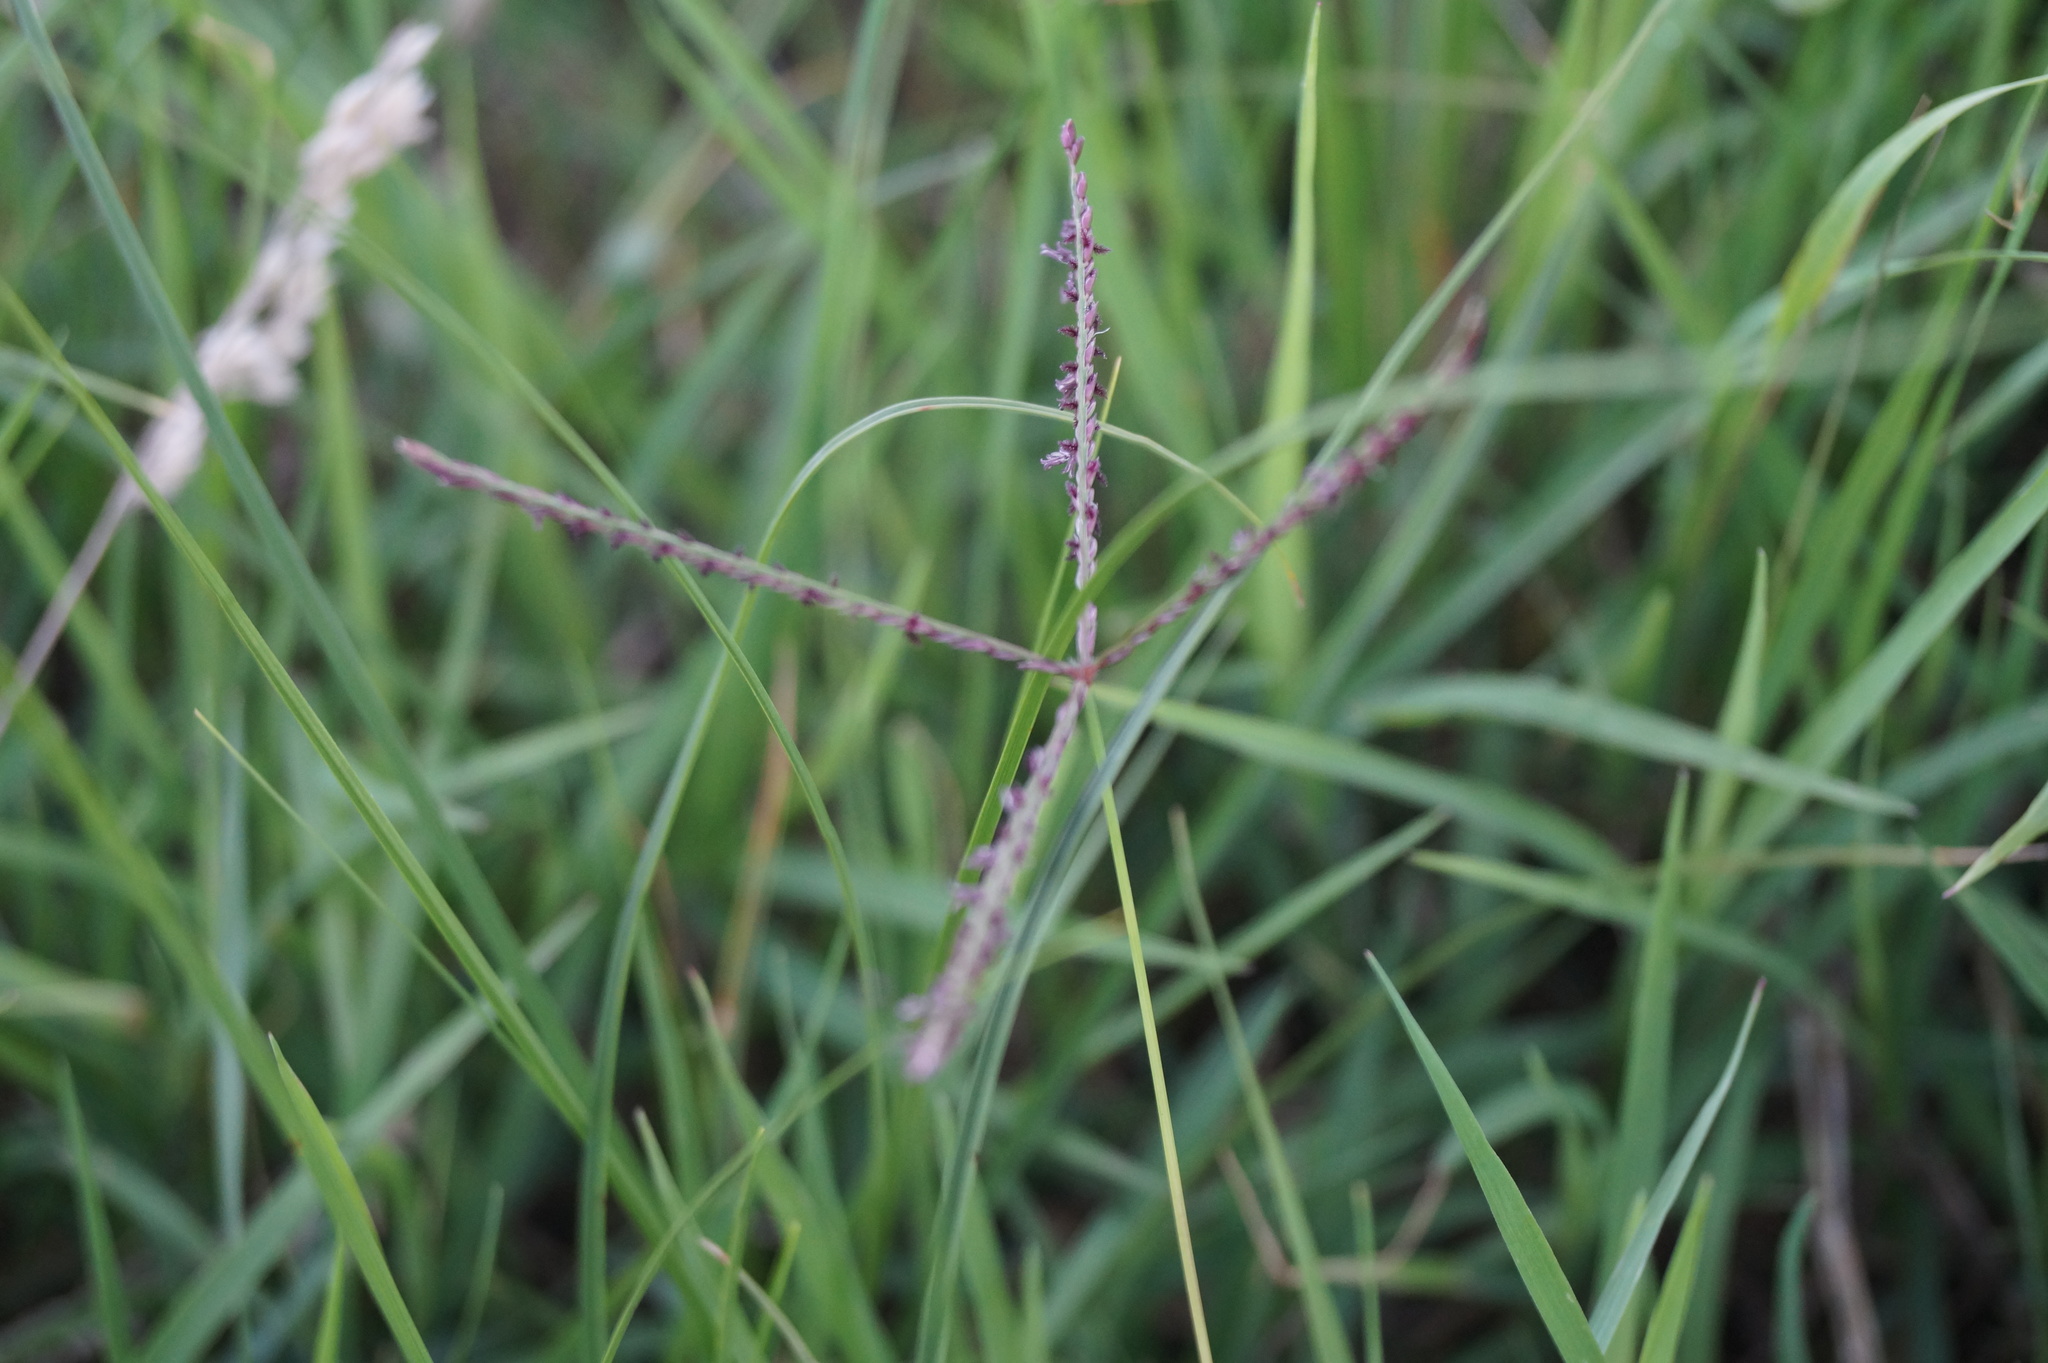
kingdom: Plantae
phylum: Tracheophyta
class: Liliopsida
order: Poales
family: Poaceae
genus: Cynodon
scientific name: Cynodon dactylon
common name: Bermuda grass
